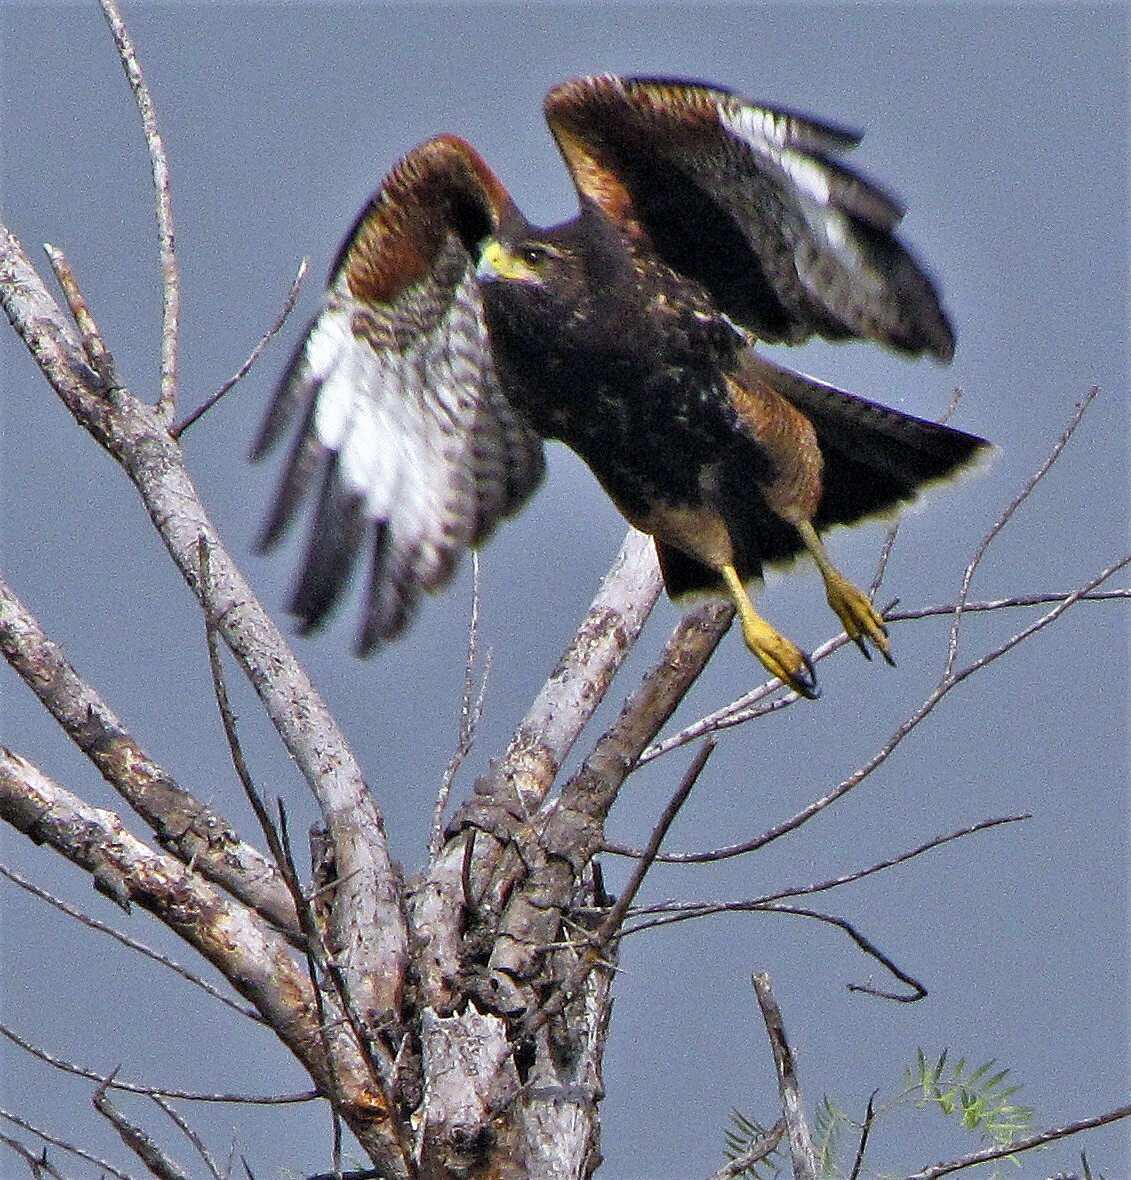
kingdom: Animalia
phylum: Chordata
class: Aves
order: Accipitriformes
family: Accipitridae
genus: Parabuteo
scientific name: Parabuteo unicinctus
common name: Harris's hawk
